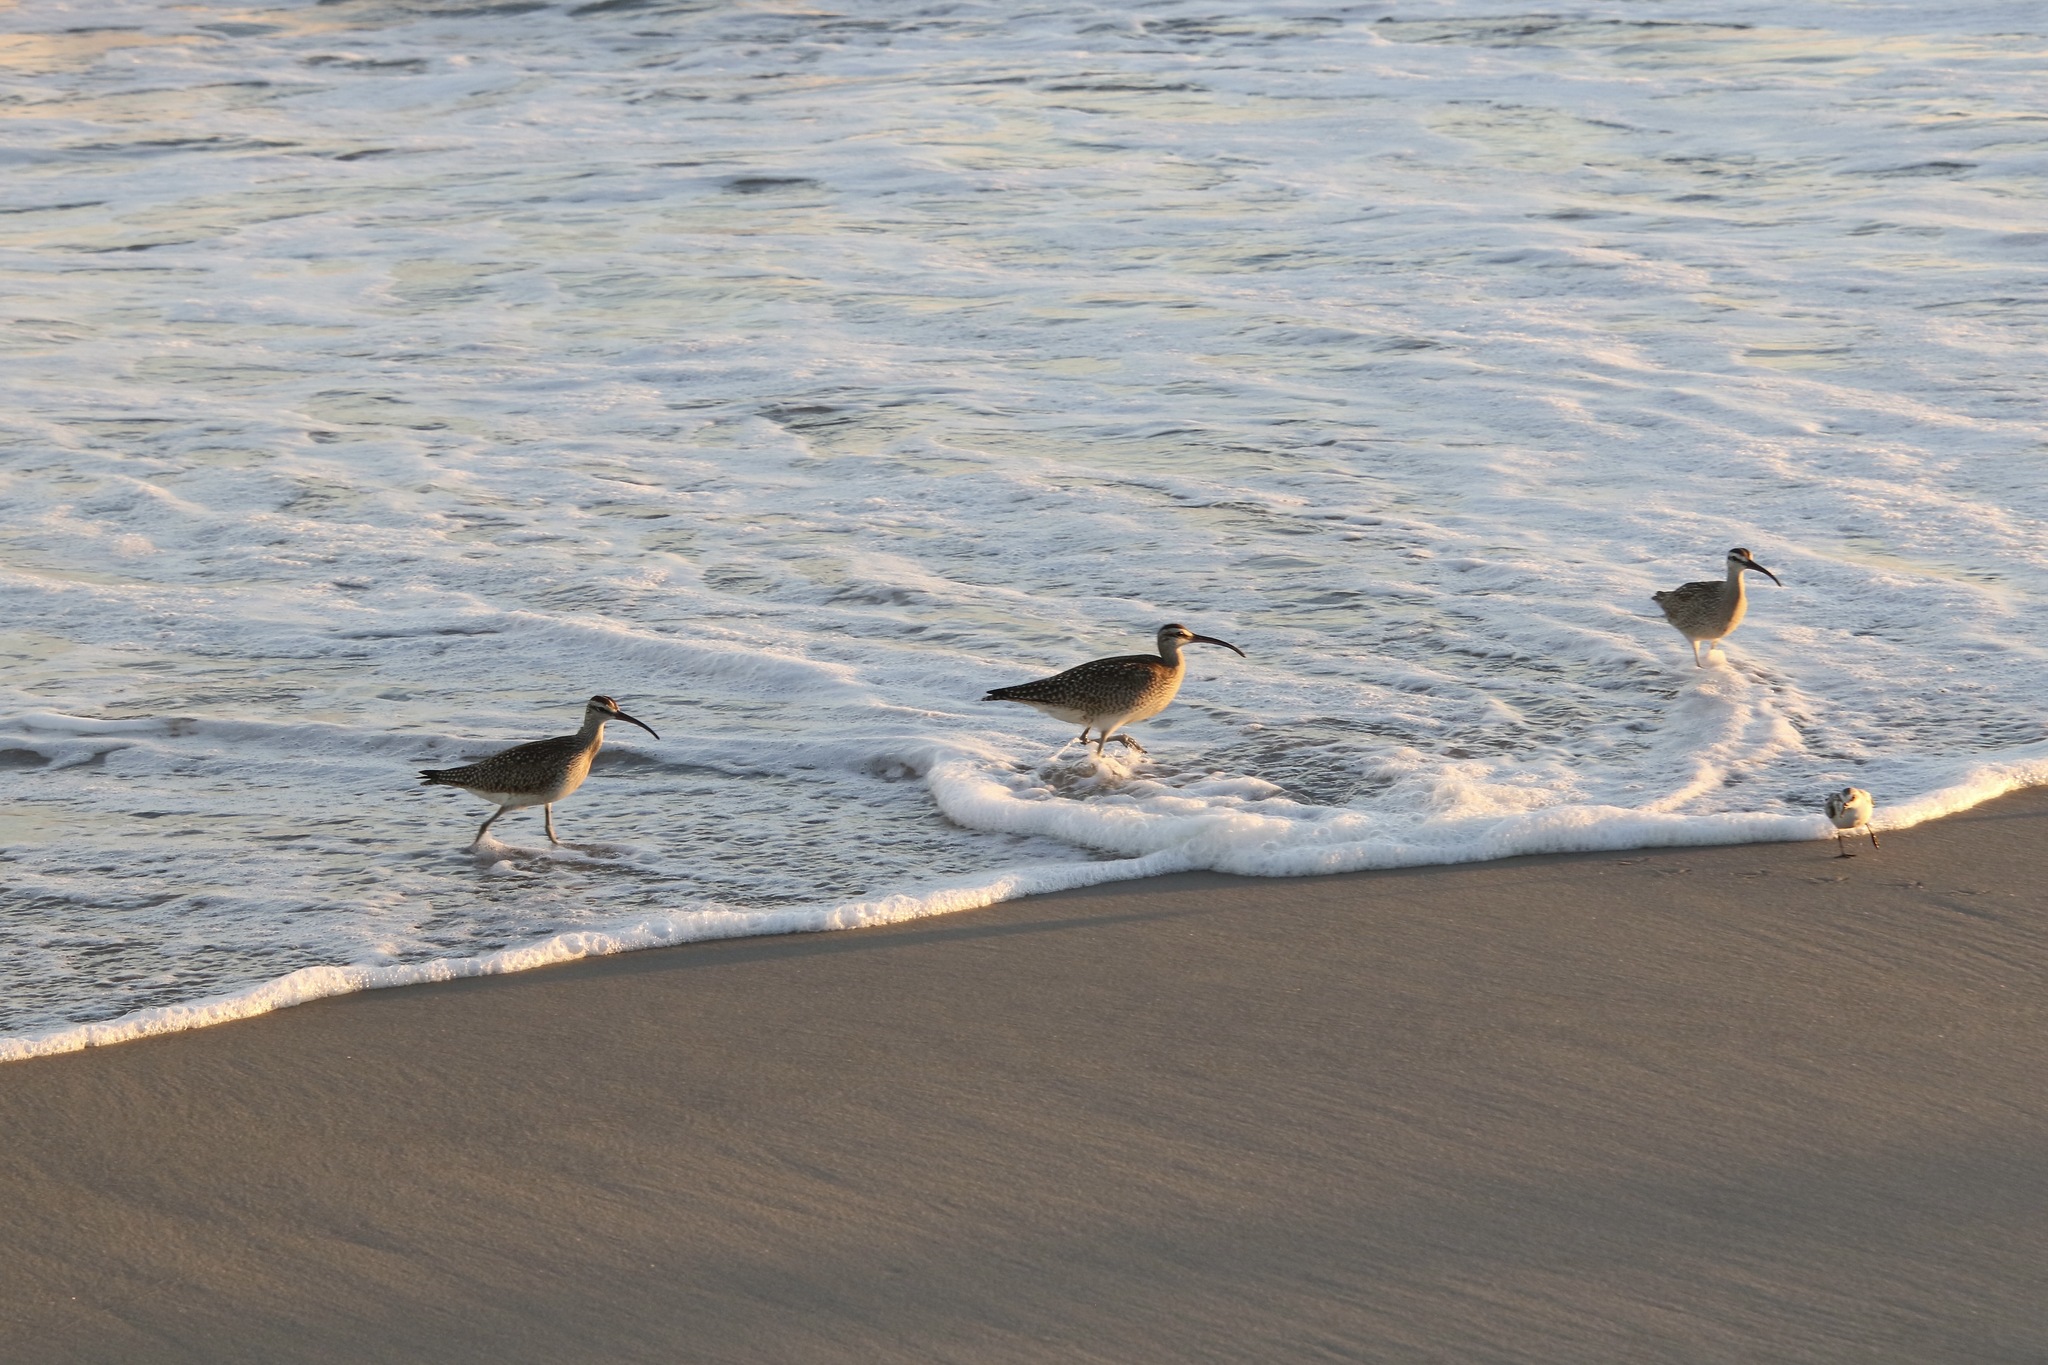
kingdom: Animalia
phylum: Chordata
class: Aves
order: Charadriiformes
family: Scolopacidae
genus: Numenius
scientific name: Numenius phaeopus
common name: Whimbrel
